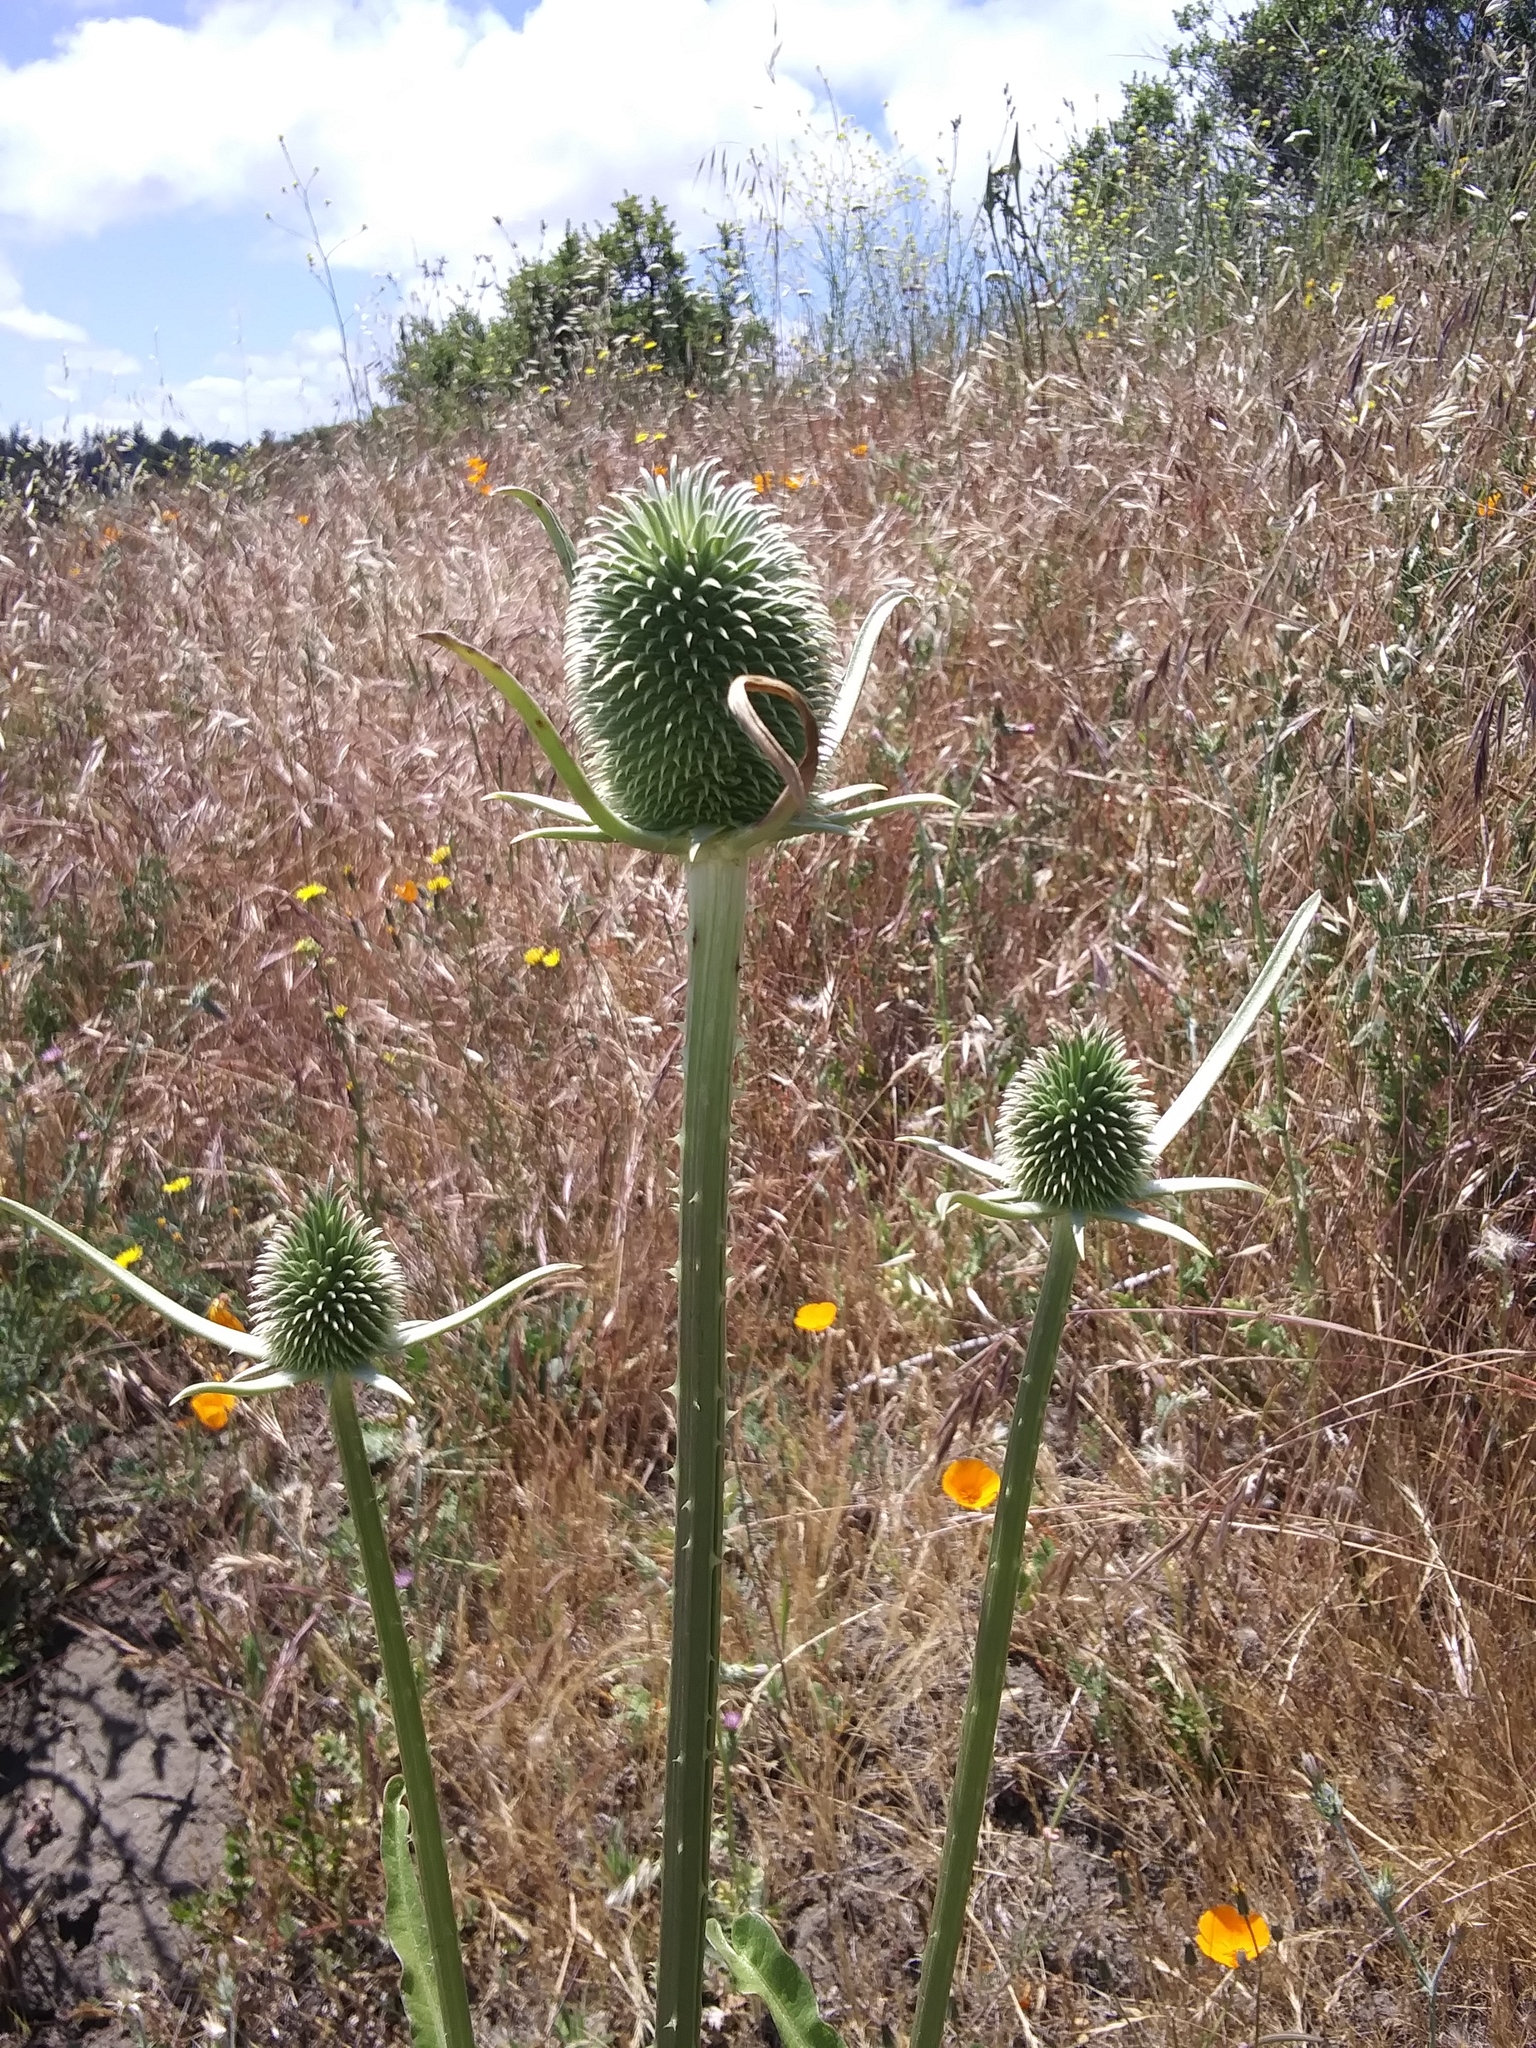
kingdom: Plantae
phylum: Tracheophyta
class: Magnoliopsida
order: Dipsacales
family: Caprifoliaceae
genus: Dipsacus
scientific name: Dipsacus sativus
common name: Fuller's teasel
